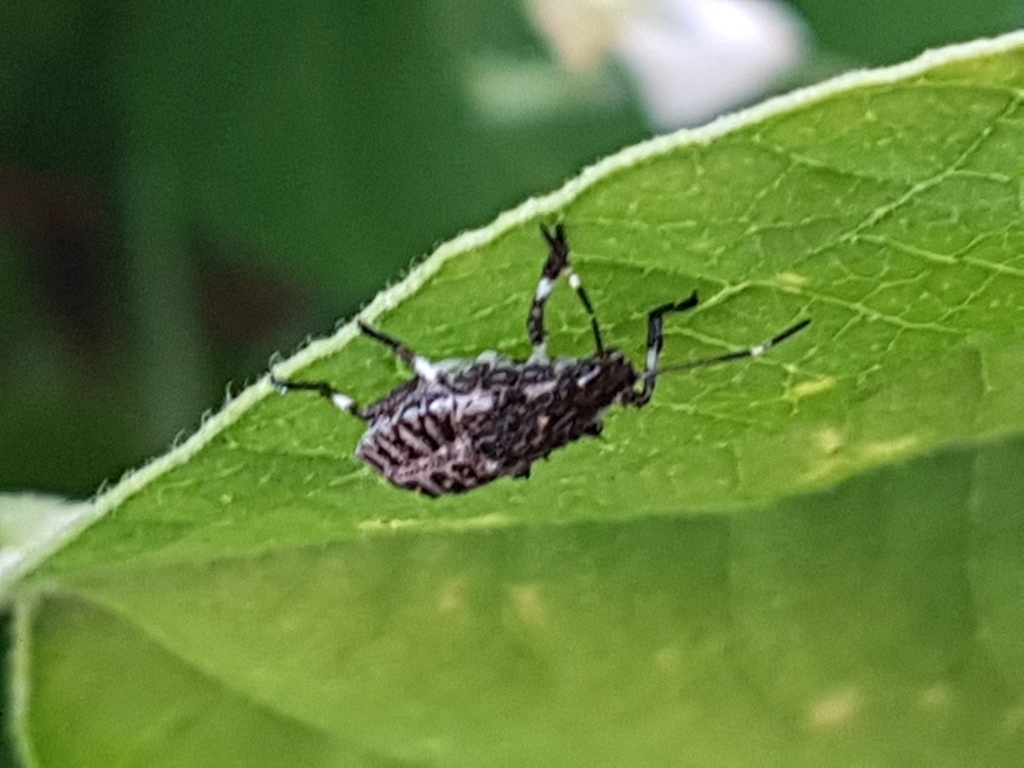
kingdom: Animalia
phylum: Arthropoda
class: Insecta
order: Hemiptera
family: Pentatomidae
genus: Halyomorpha
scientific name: Halyomorpha halys
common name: Brown marmorated stink bug
